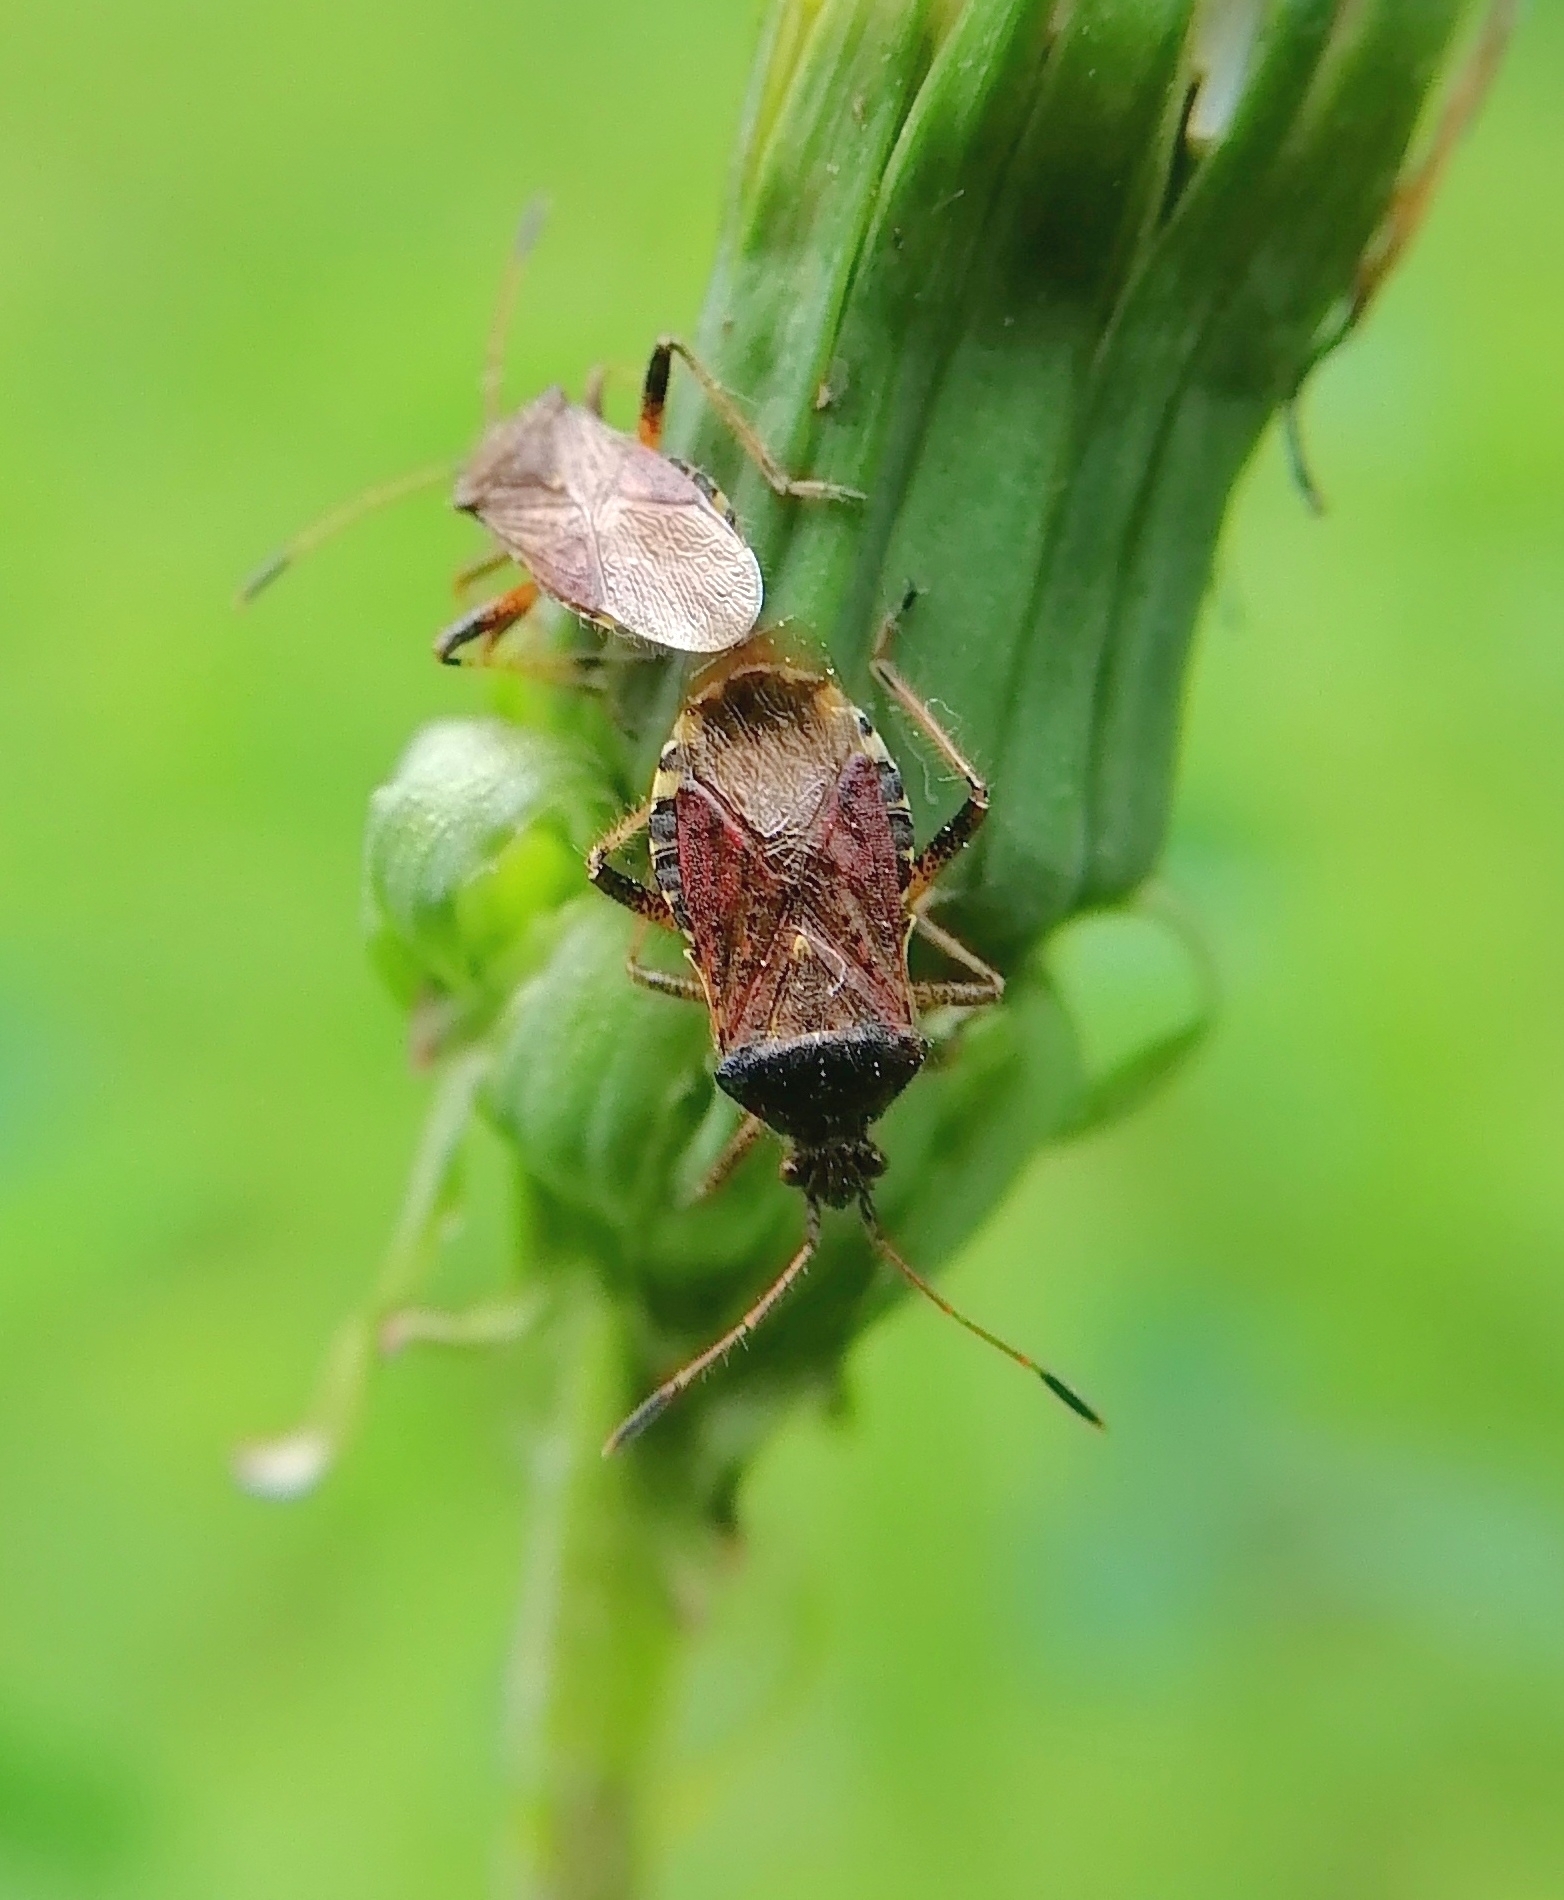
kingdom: Animalia
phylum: Arthropoda
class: Insecta
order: Hemiptera
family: Rhopalidae
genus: Rhopalus
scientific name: Rhopalus latus
